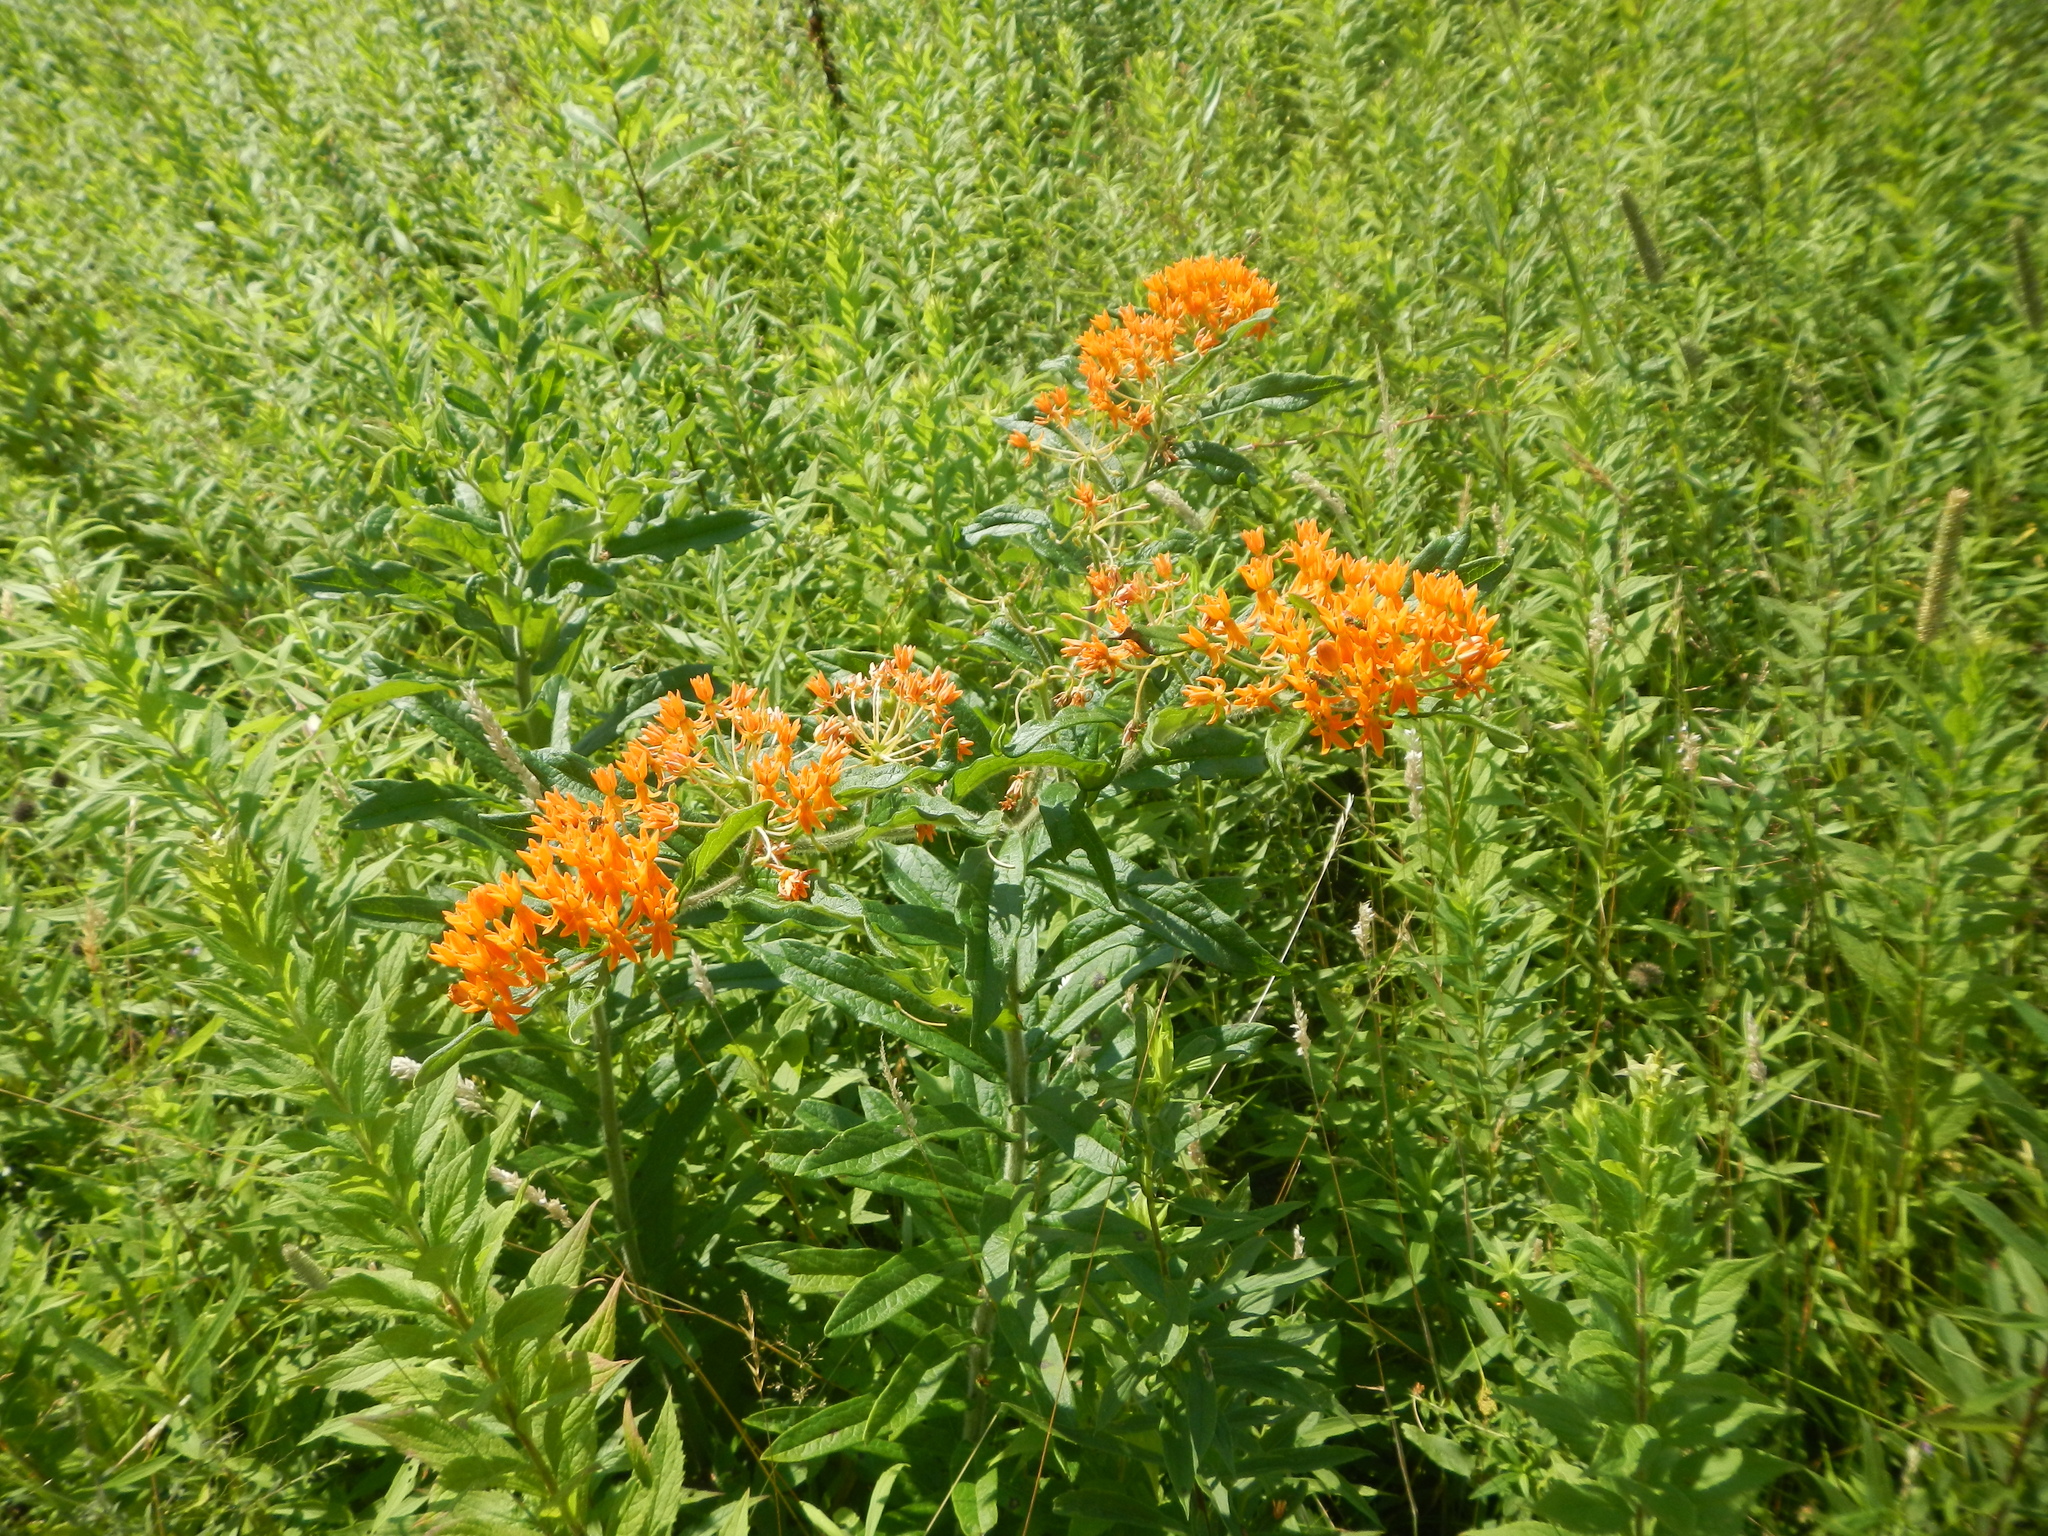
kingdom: Plantae
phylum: Tracheophyta
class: Magnoliopsida
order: Gentianales
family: Apocynaceae
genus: Asclepias
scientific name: Asclepias tuberosa
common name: Butterfly milkweed
